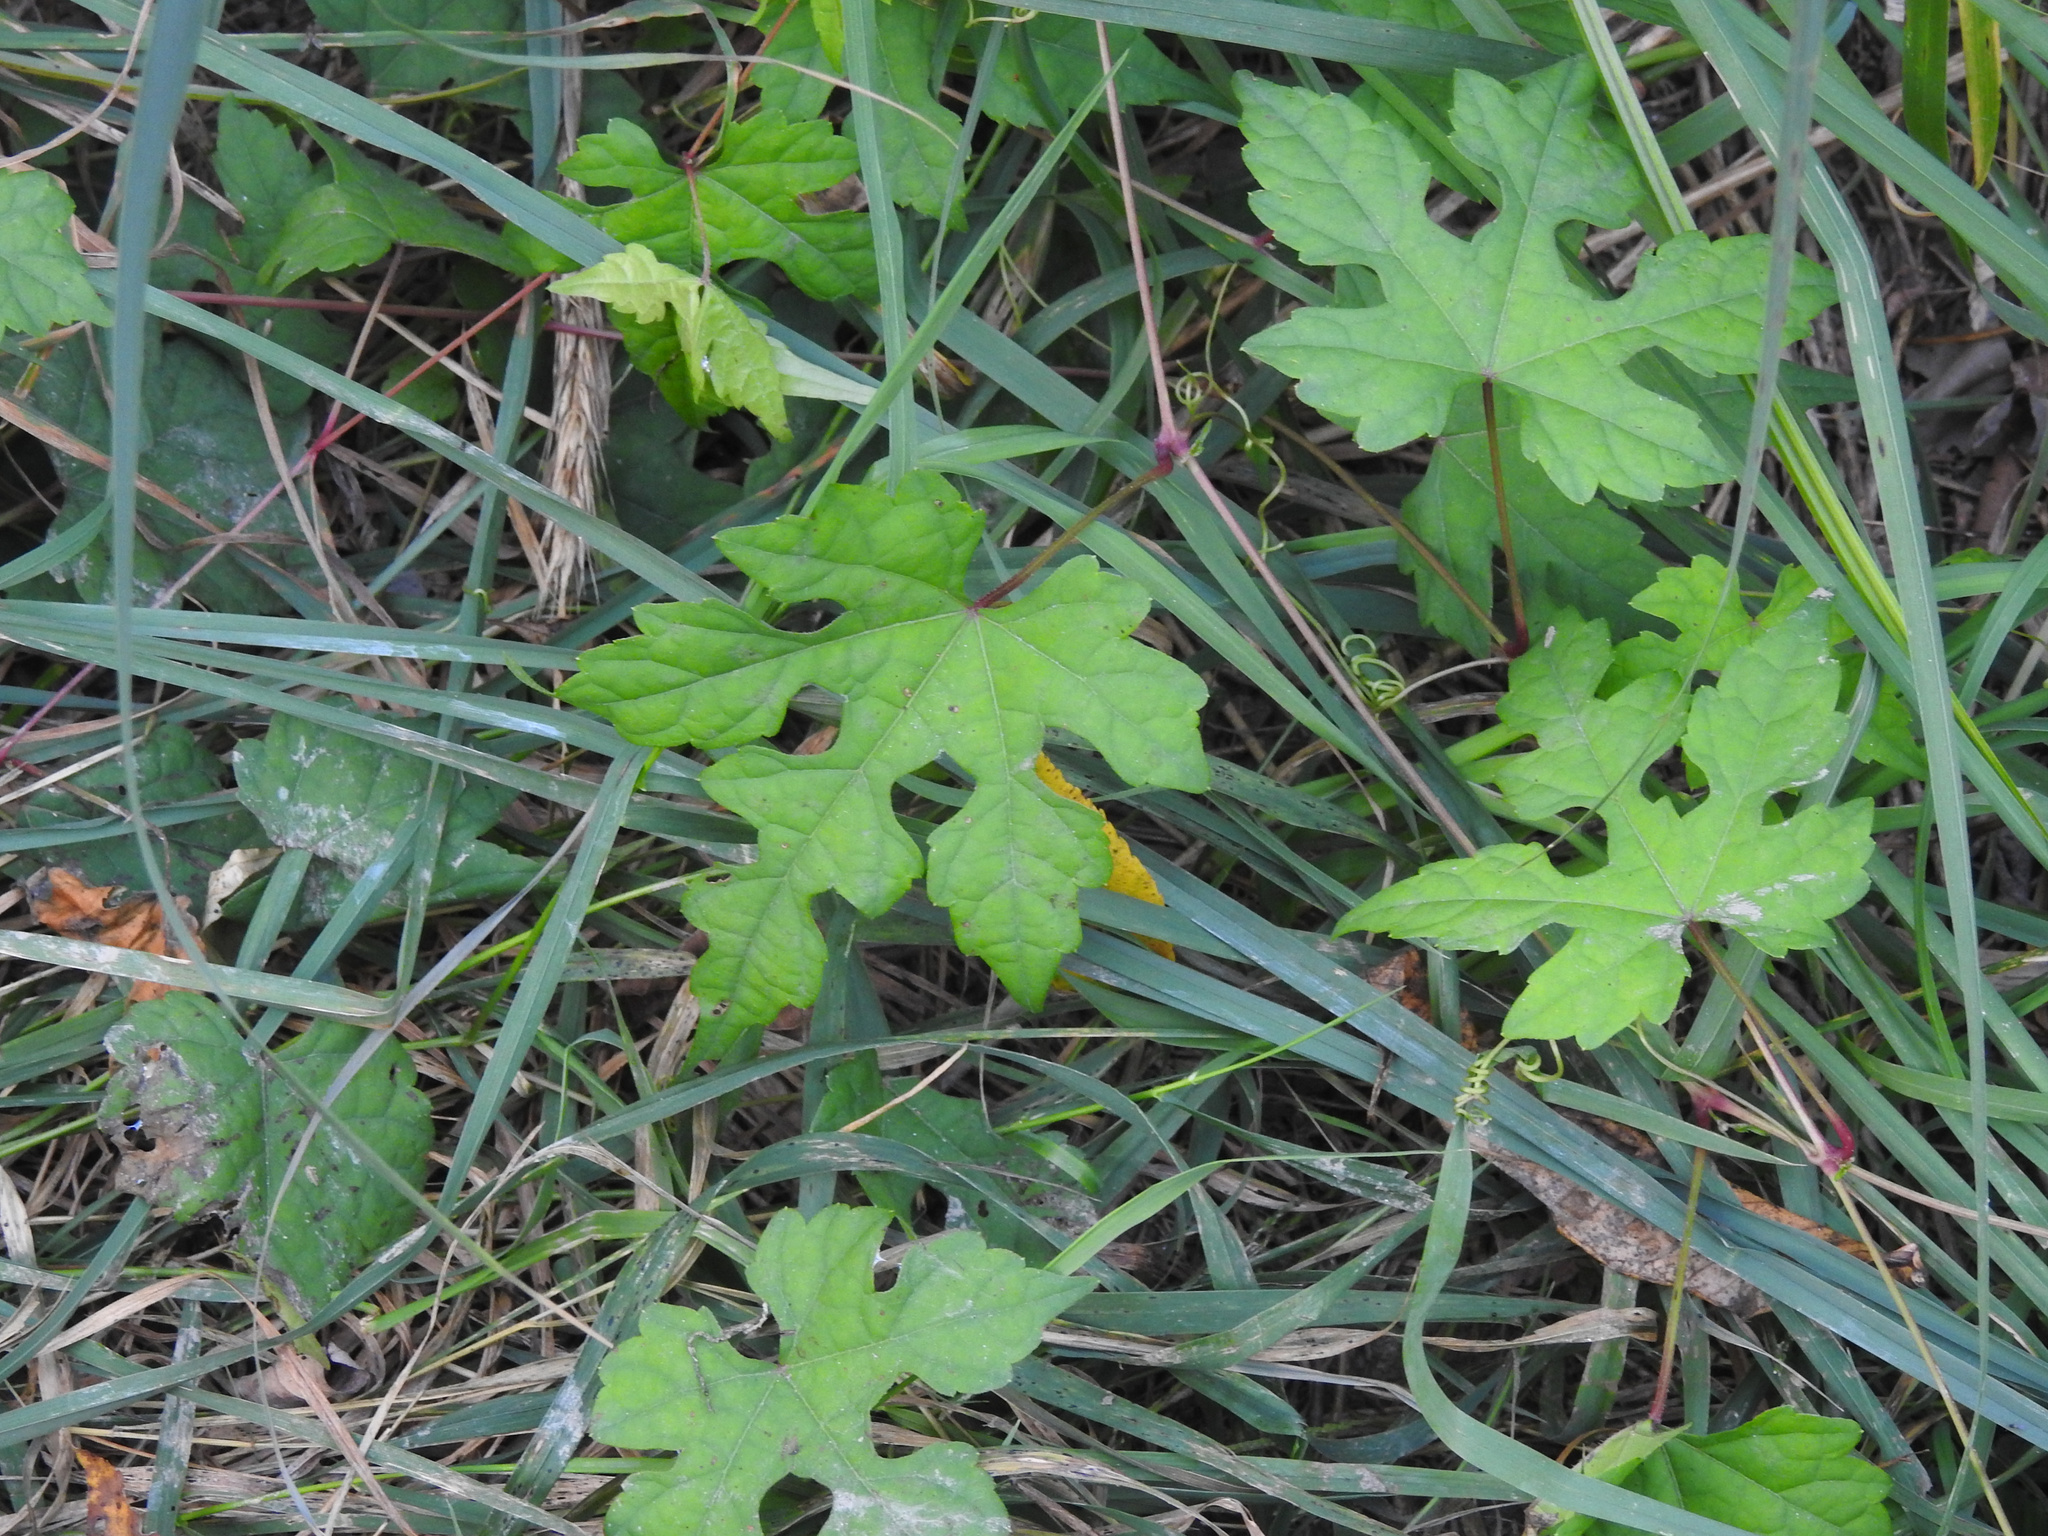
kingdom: Plantae
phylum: Tracheophyta
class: Magnoliopsida
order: Vitales
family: Vitaceae
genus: Ampelopsis
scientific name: Ampelopsis glandulosa
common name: Amur peppervine
